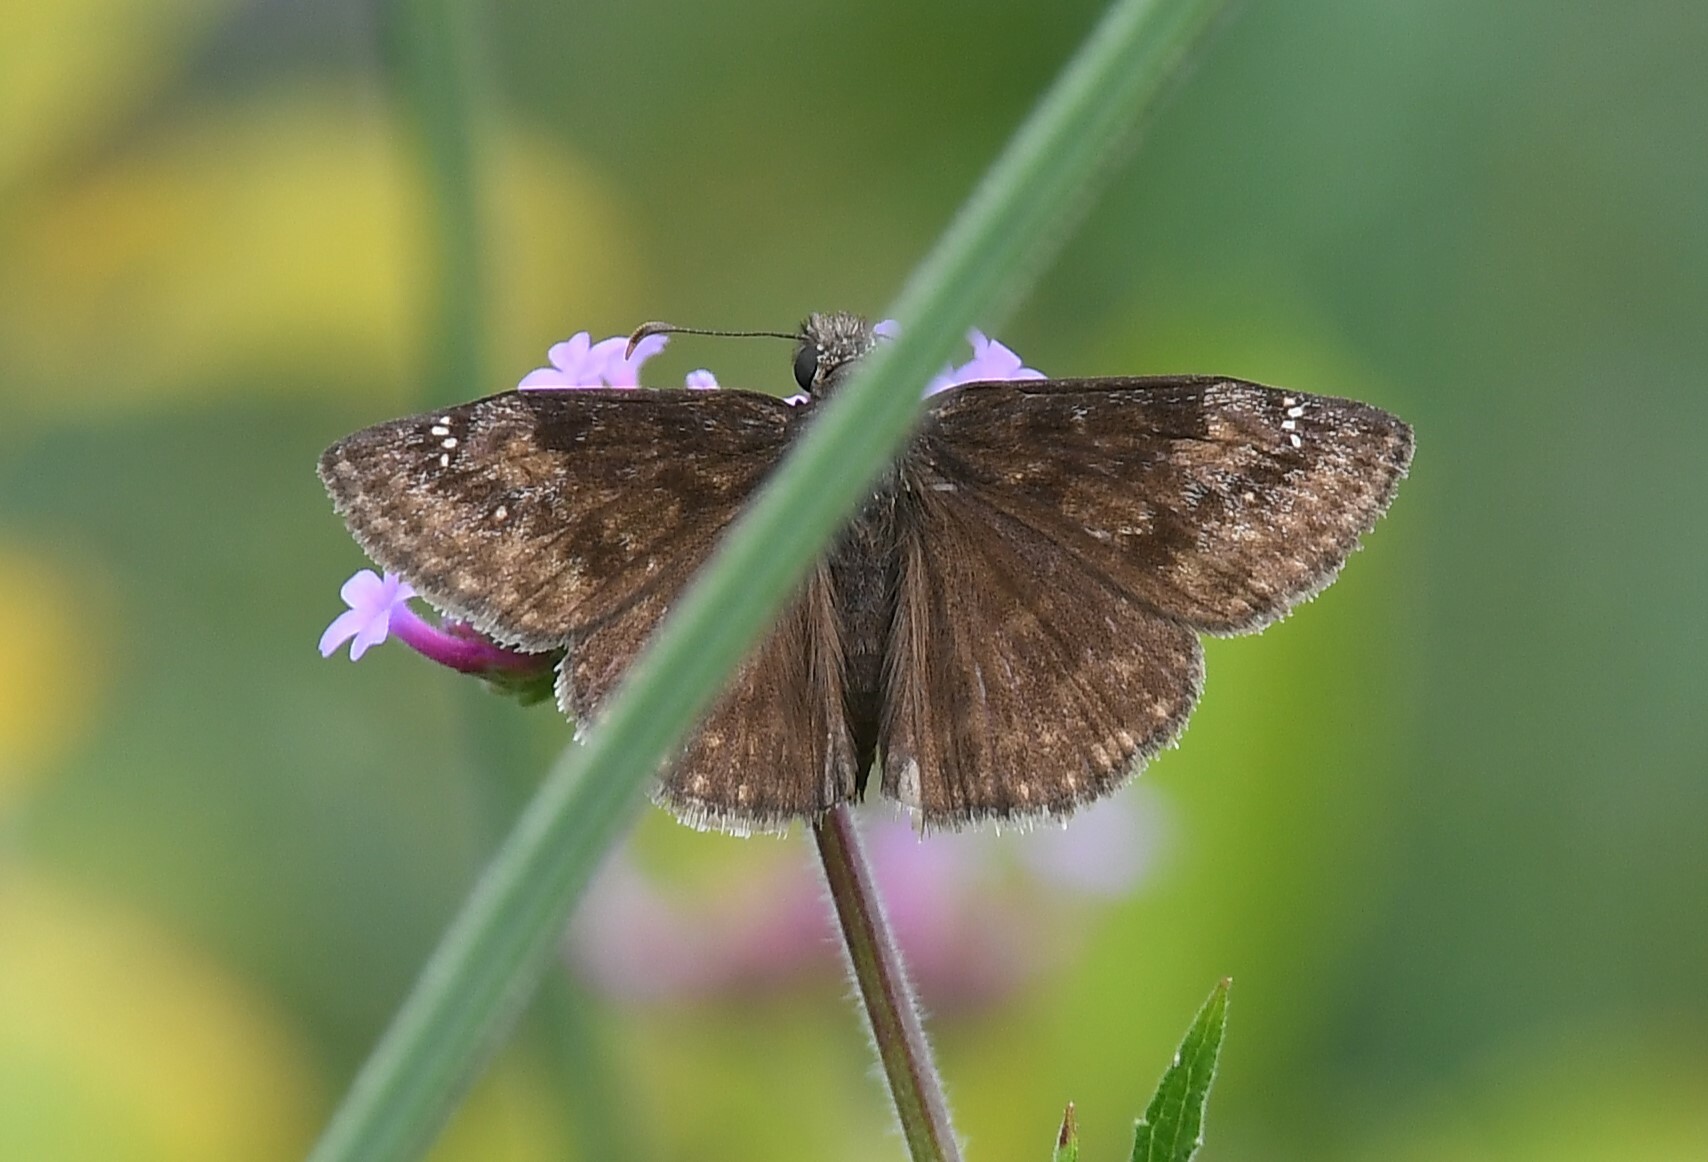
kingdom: Animalia
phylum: Arthropoda
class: Insecta
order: Lepidoptera
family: Hesperiidae
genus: Erynnis
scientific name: Erynnis baptisiae
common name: Wild indigo duskywing
